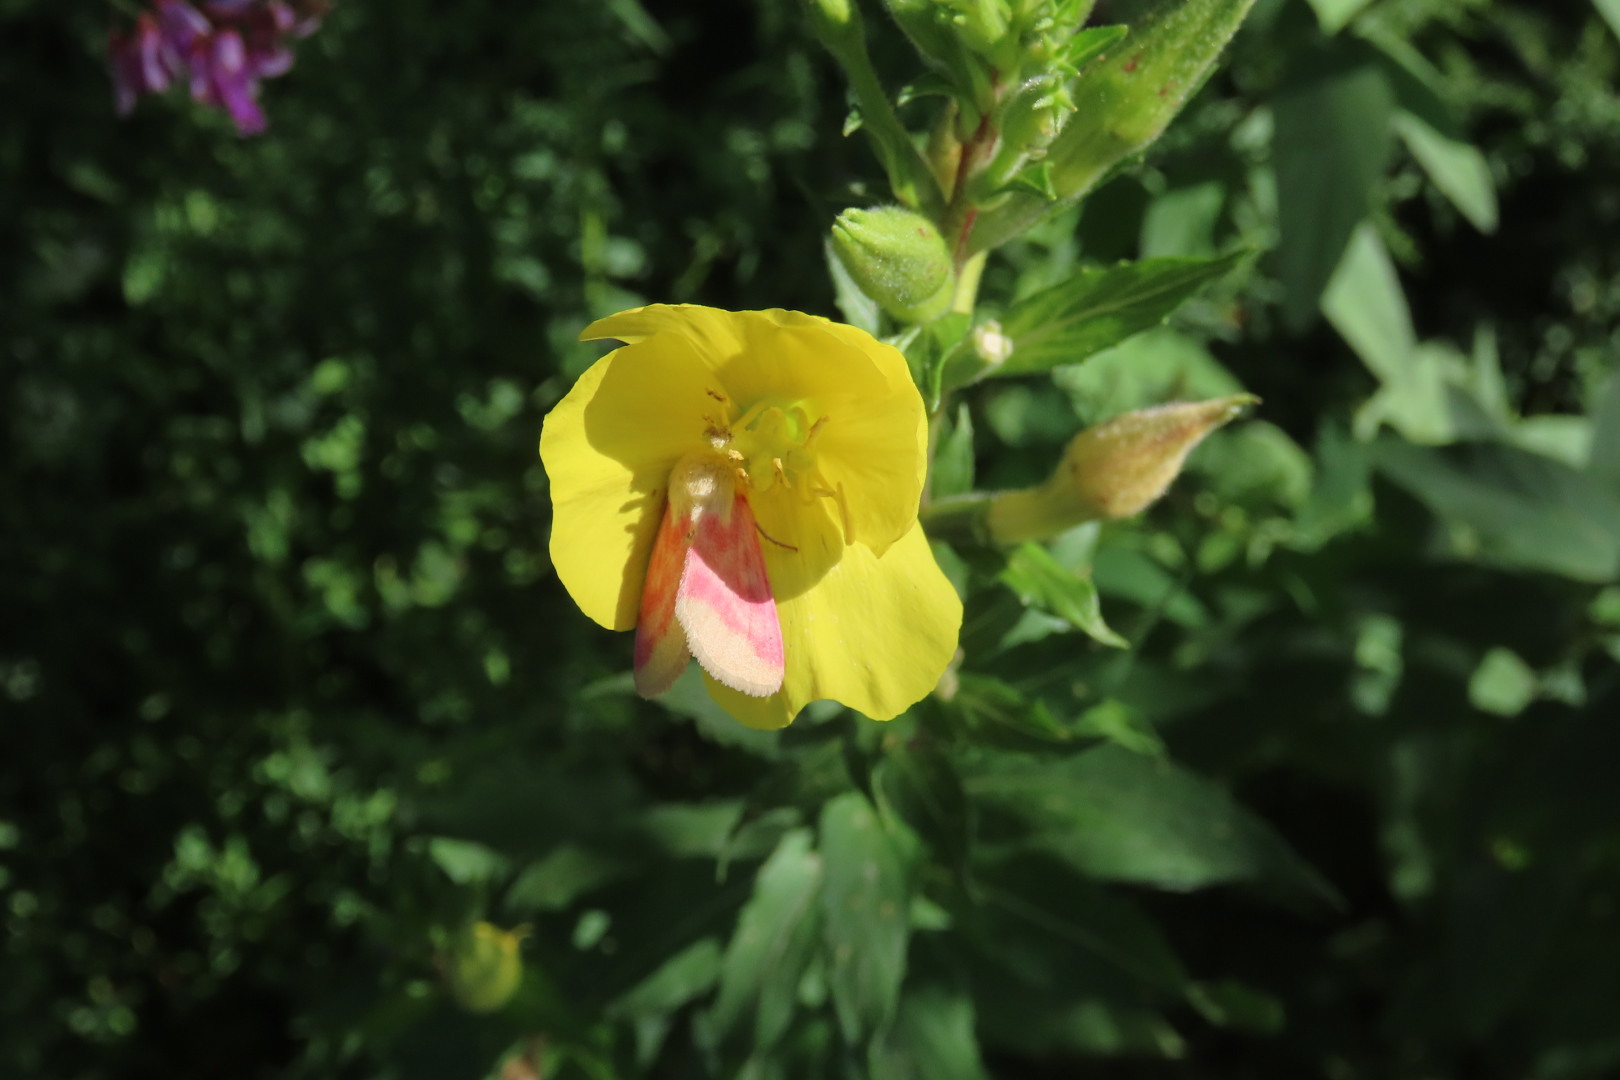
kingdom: Animalia
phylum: Arthropoda
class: Insecta
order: Lepidoptera
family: Noctuidae
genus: Schinia
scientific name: Schinia florida
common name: Primrose moth
